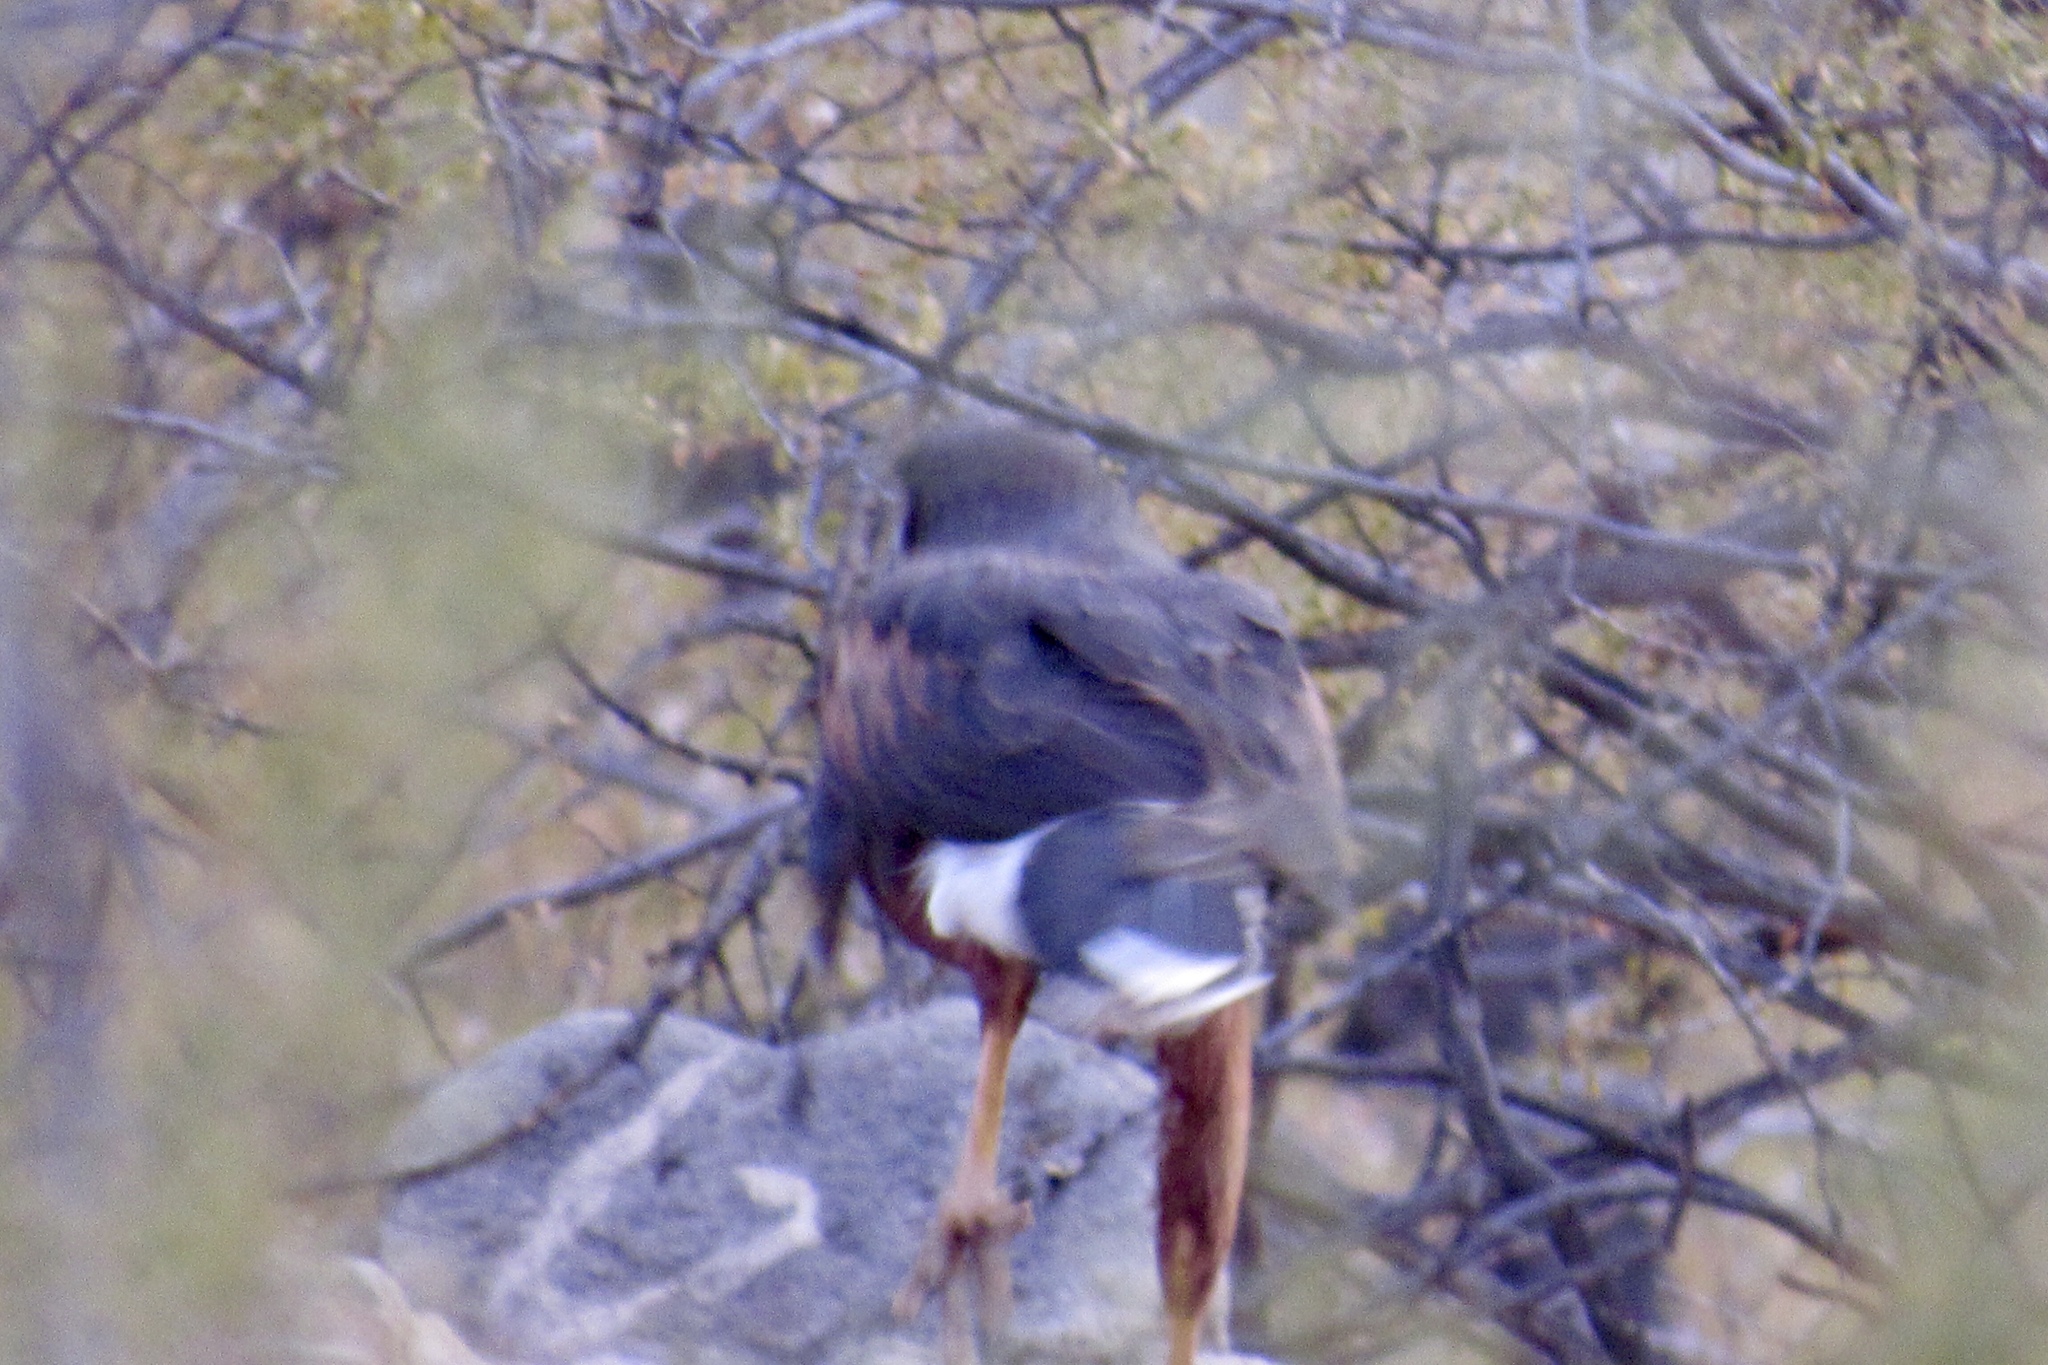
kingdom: Animalia
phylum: Chordata
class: Aves
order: Accipitriformes
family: Accipitridae
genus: Parabuteo
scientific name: Parabuteo unicinctus
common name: Harris's hawk
